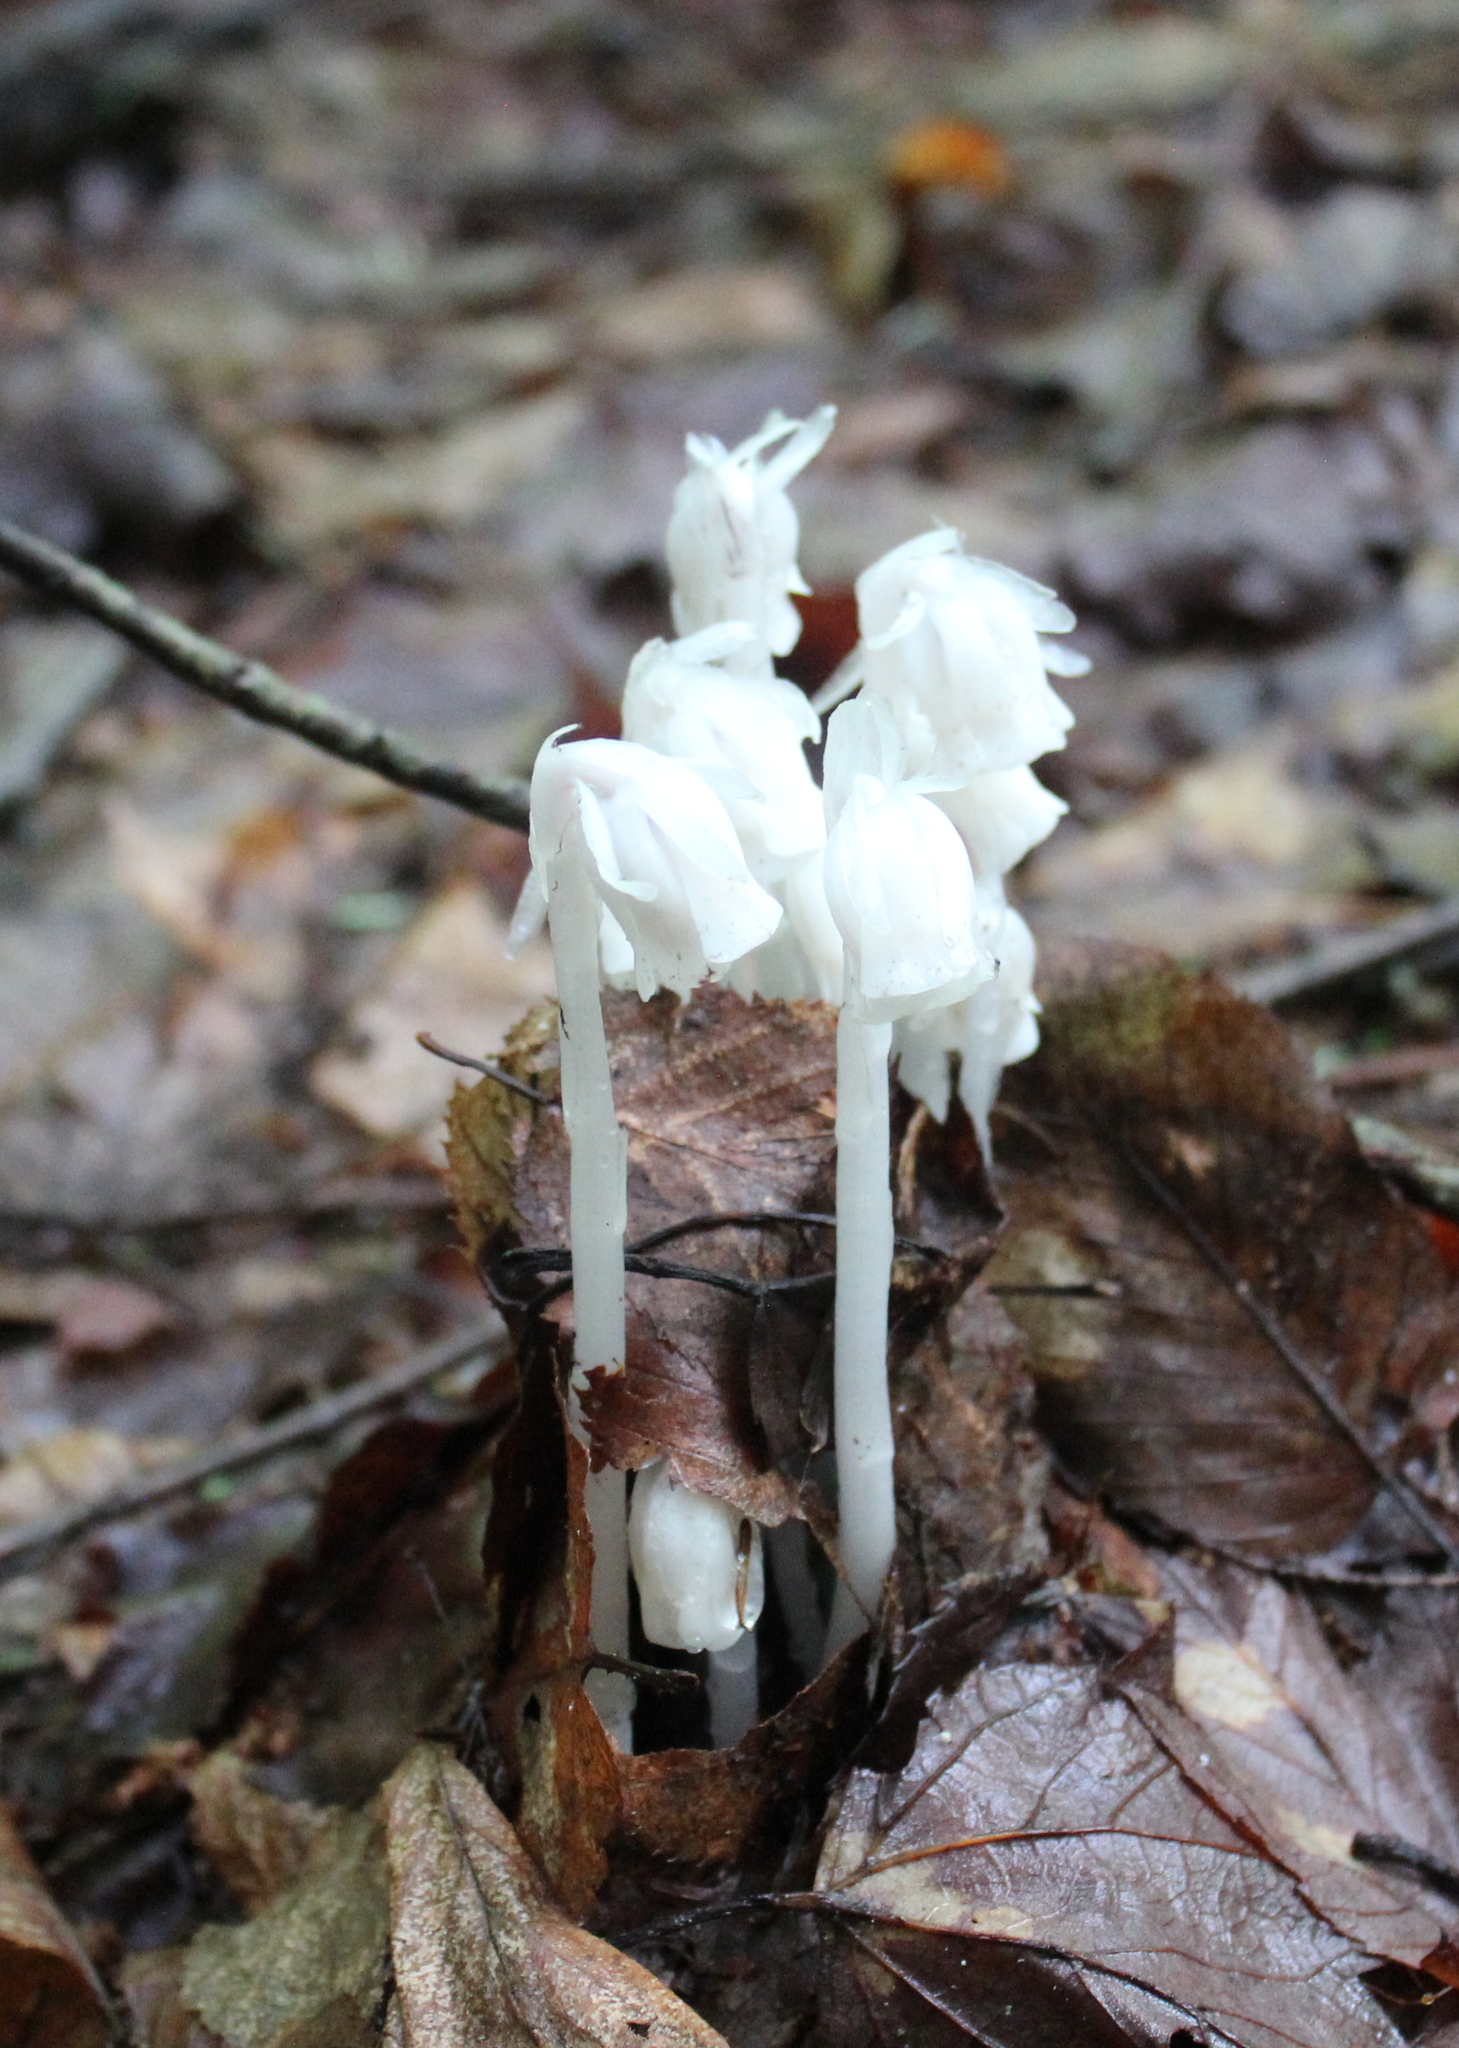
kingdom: Plantae
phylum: Tracheophyta
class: Magnoliopsida
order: Ericales
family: Ericaceae
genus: Monotropa
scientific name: Monotropa uniflora
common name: Convulsion root
